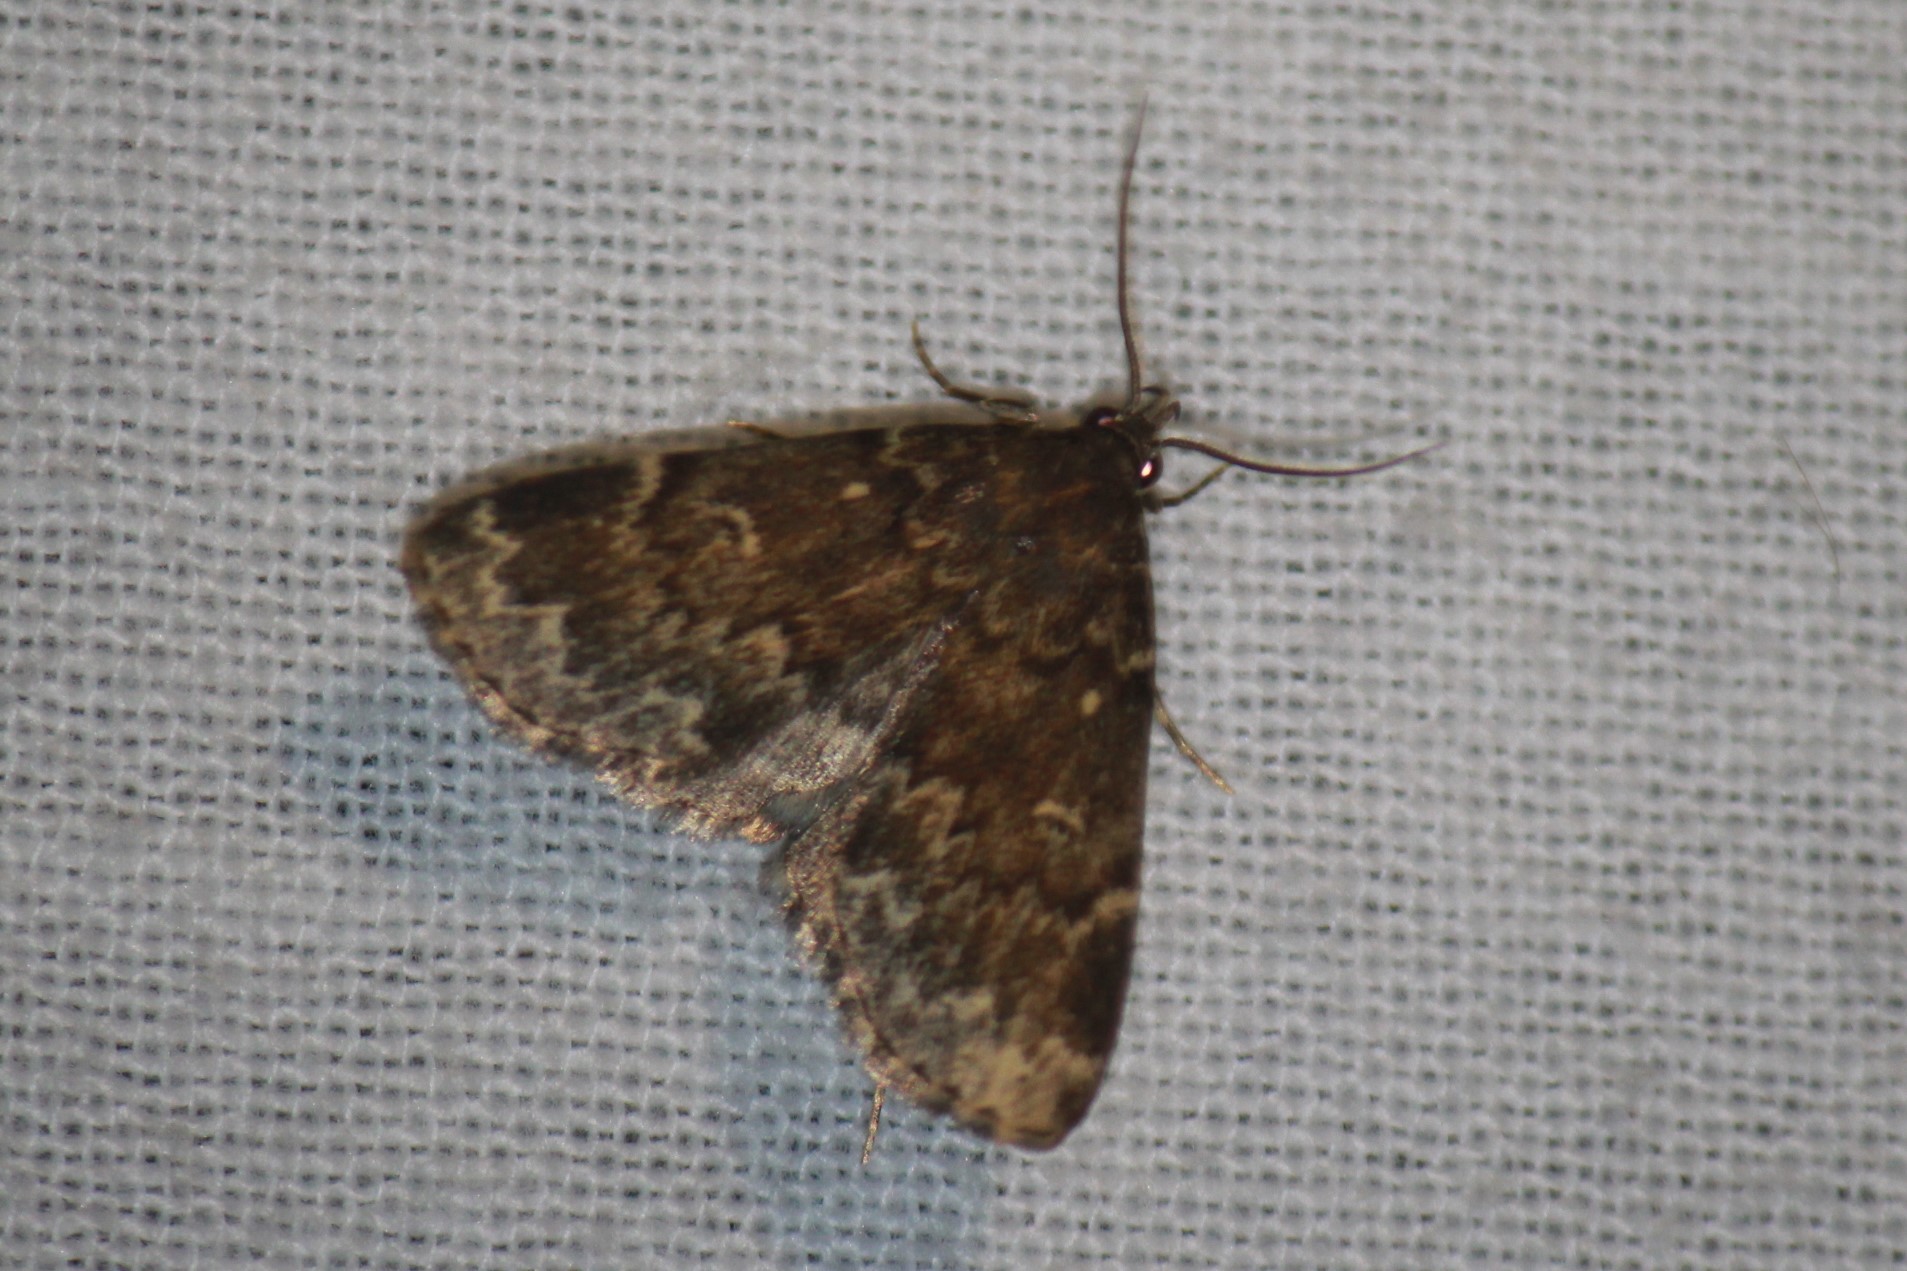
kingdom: Animalia
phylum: Arthropoda
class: Insecta
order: Lepidoptera
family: Erebidae
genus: Idia
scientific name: Idia lubricalis
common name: Twin-striped tabby
